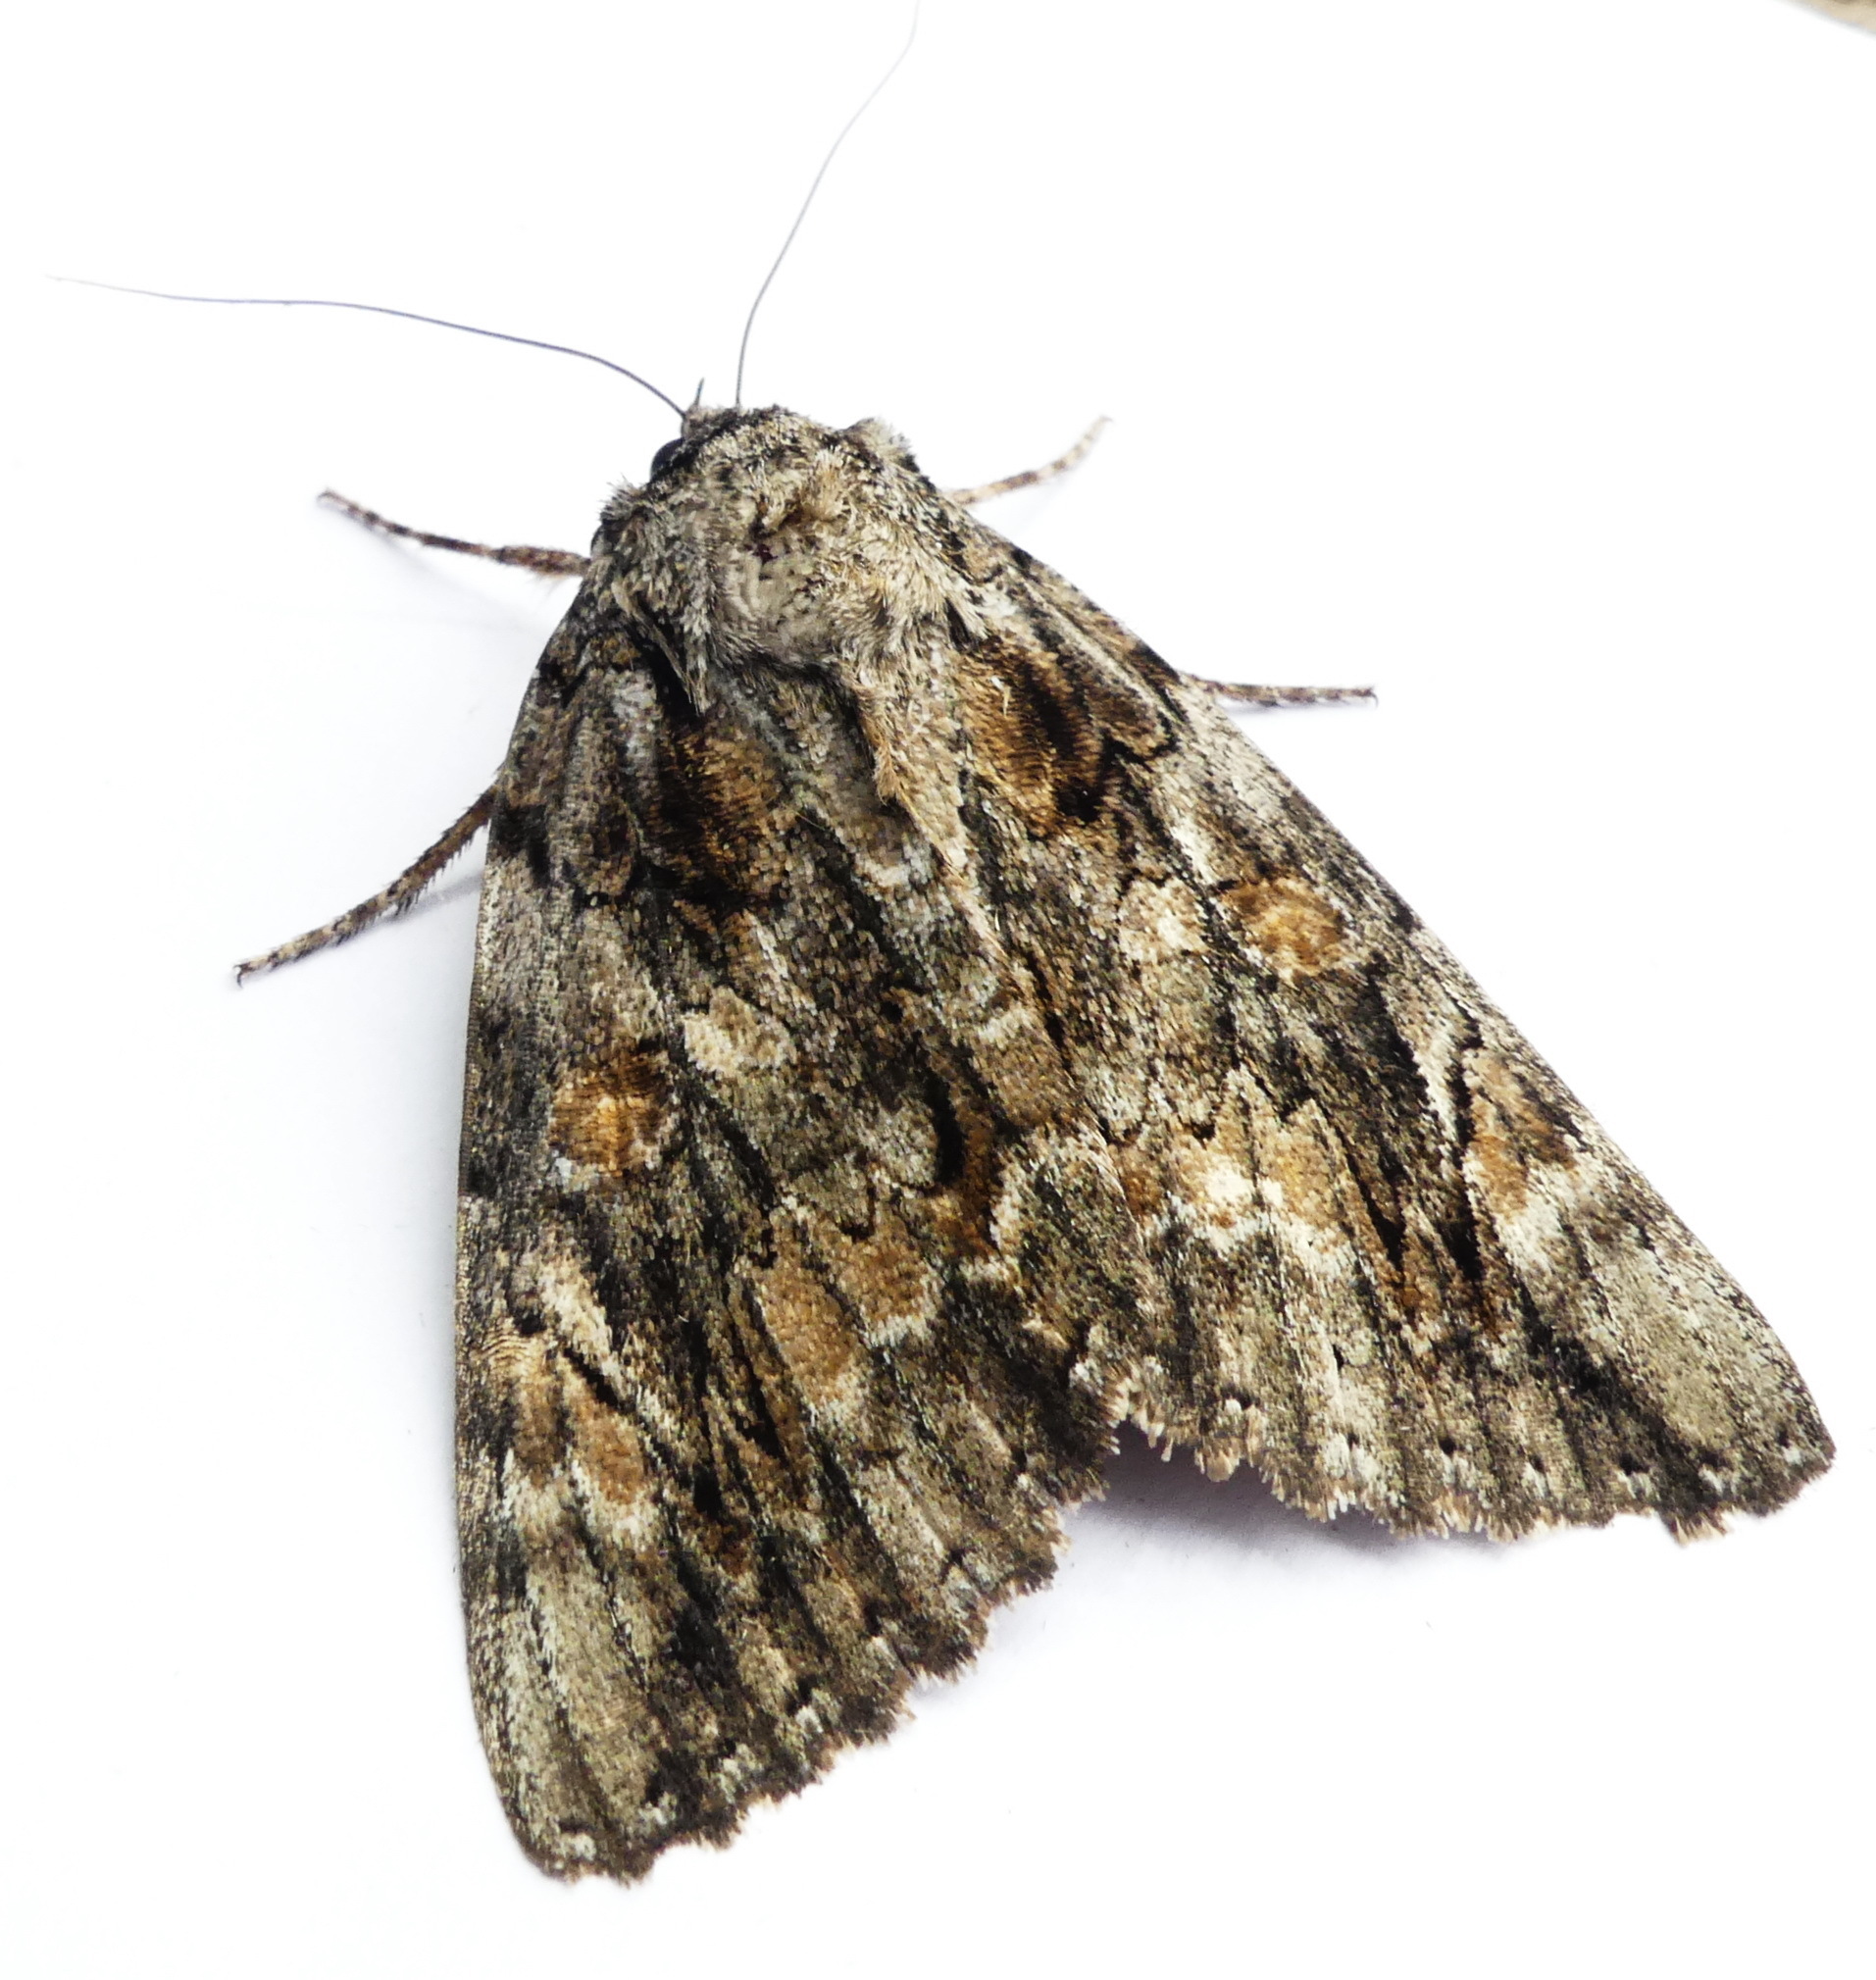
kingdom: Animalia
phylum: Arthropoda
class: Insecta
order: Lepidoptera
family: Erebidae
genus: Catocala
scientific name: Catocala neogama
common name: Bride underwing
